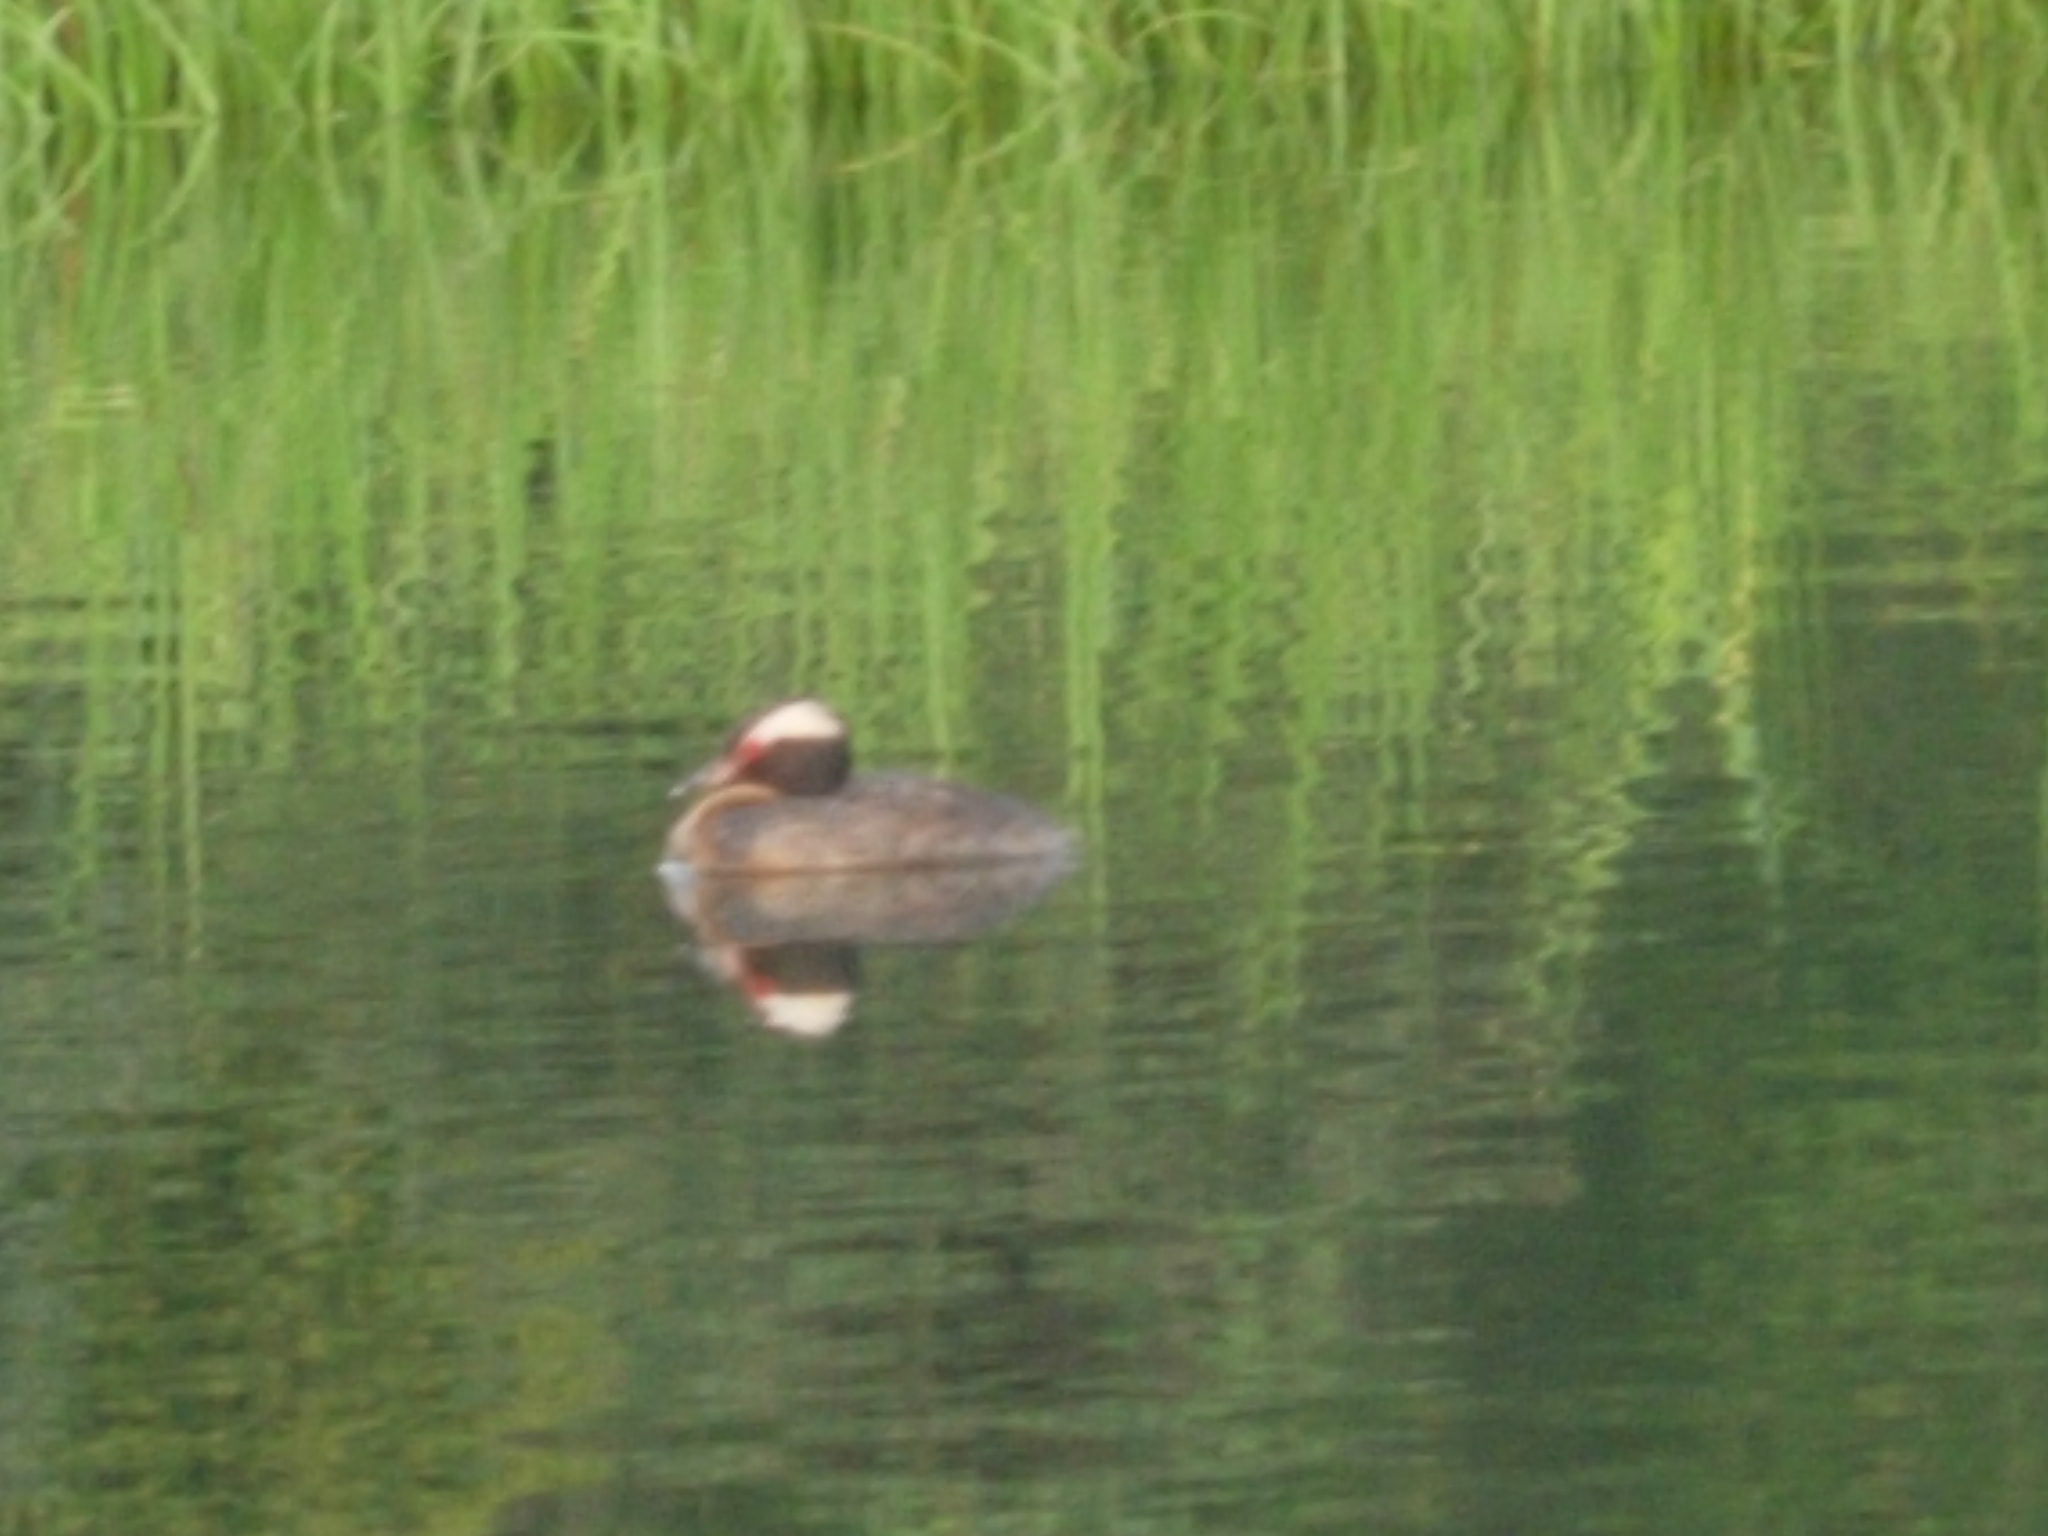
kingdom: Animalia
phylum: Chordata
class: Aves
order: Podicipediformes
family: Podicipedidae
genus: Podiceps
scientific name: Podiceps auritus
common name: Horned grebe
